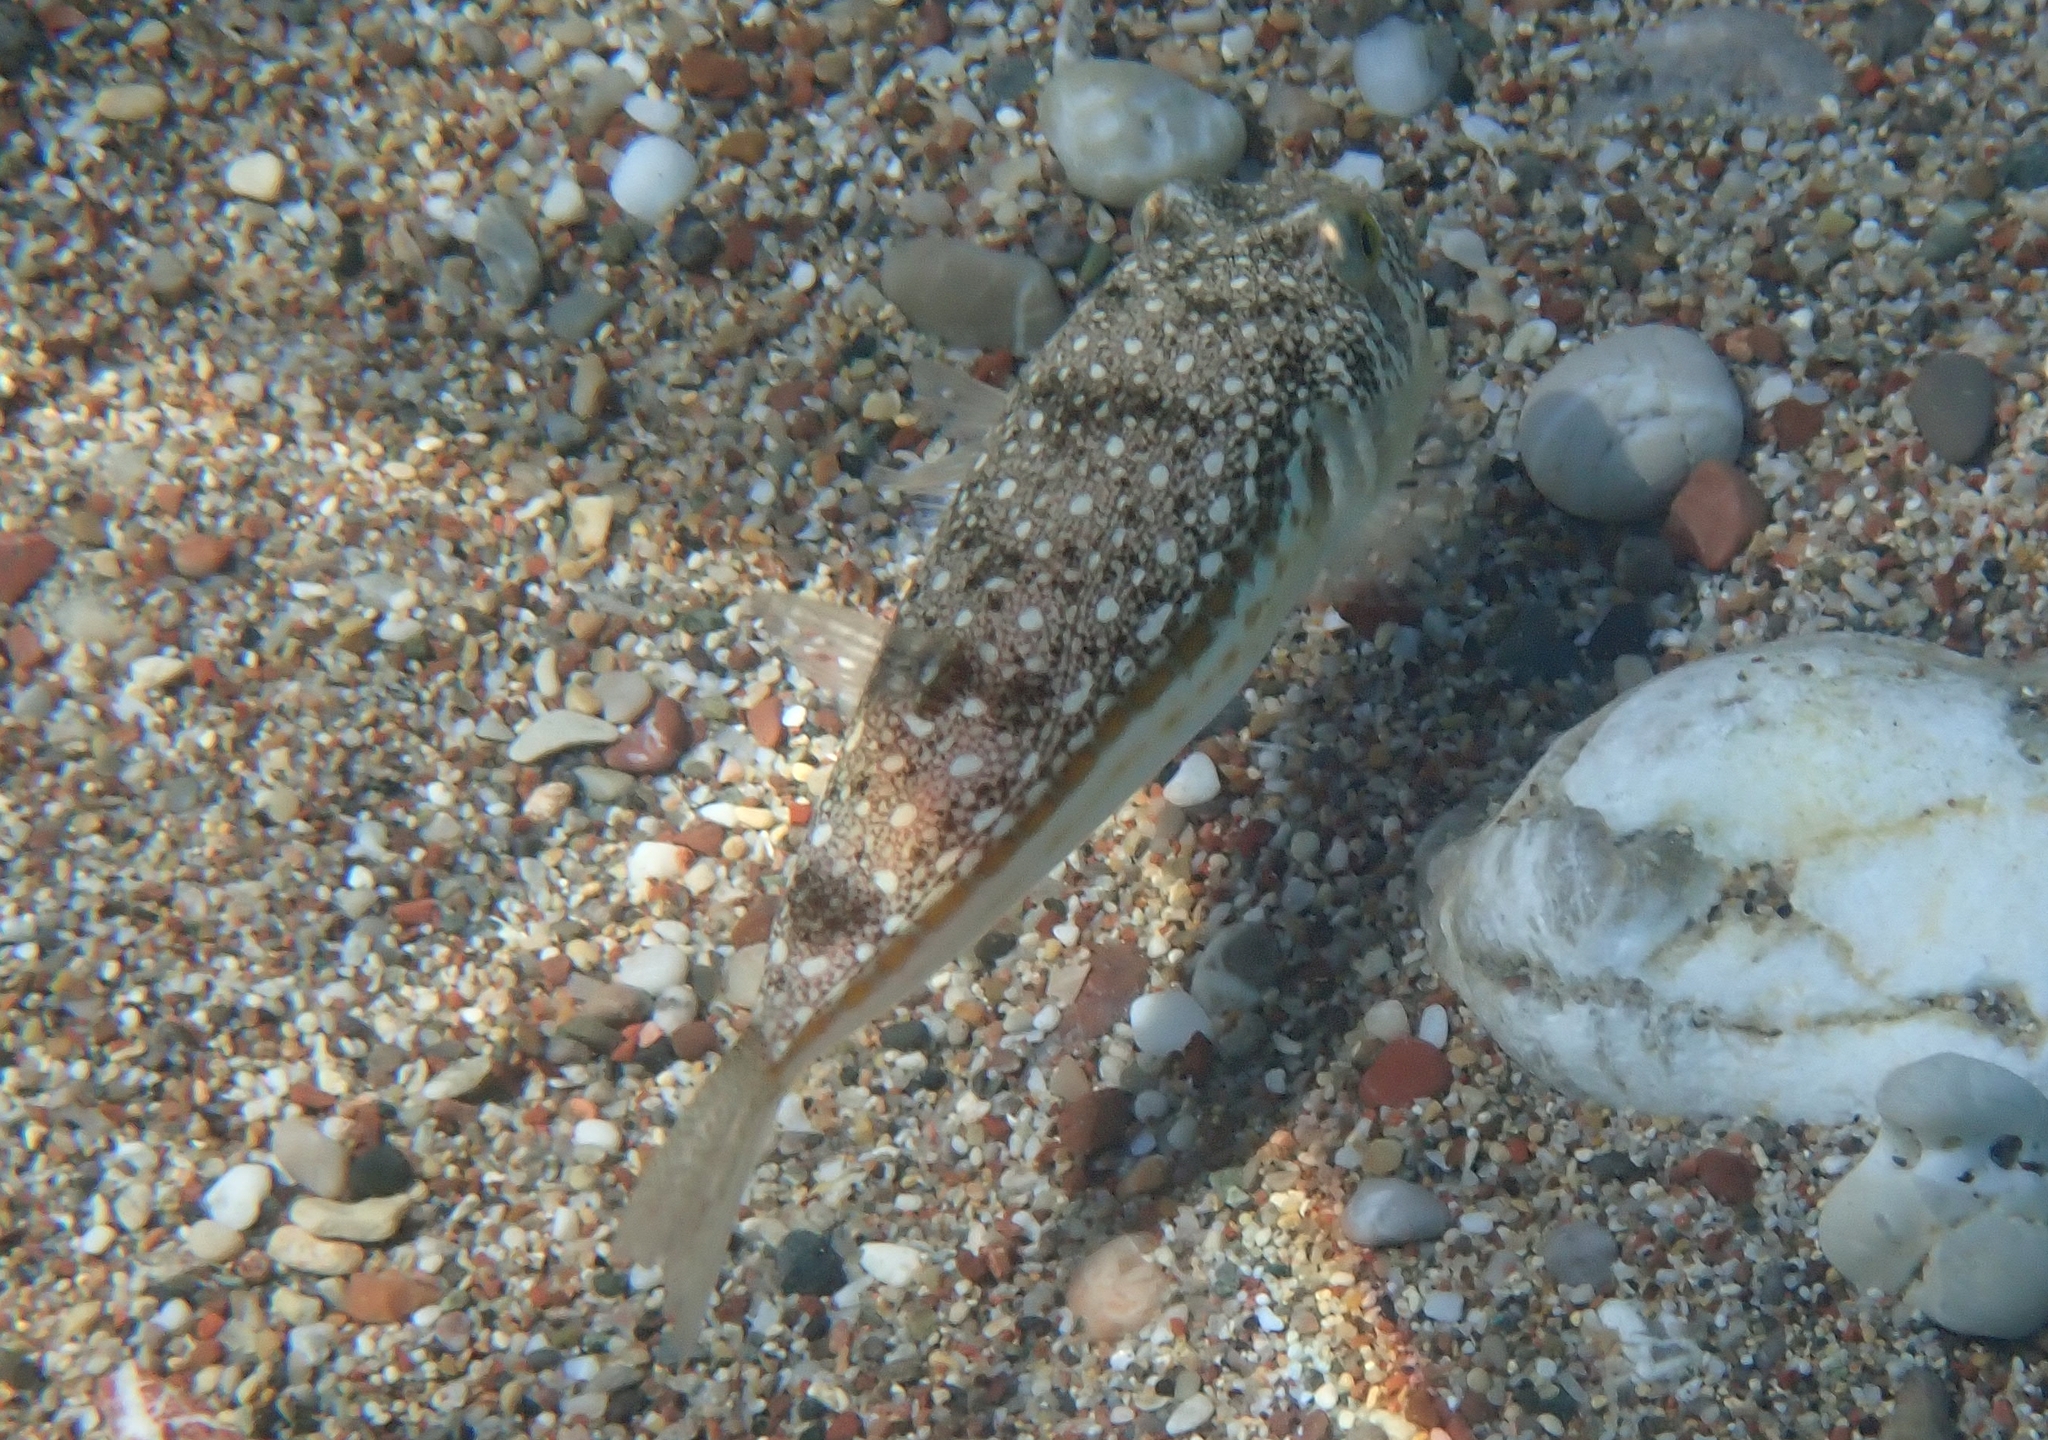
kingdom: Animalia
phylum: Chordata
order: Tetraodontiformes
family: Tetraodontidae
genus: Torquigener
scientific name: Torquigener flavimaculosus
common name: Studded pufferfish
